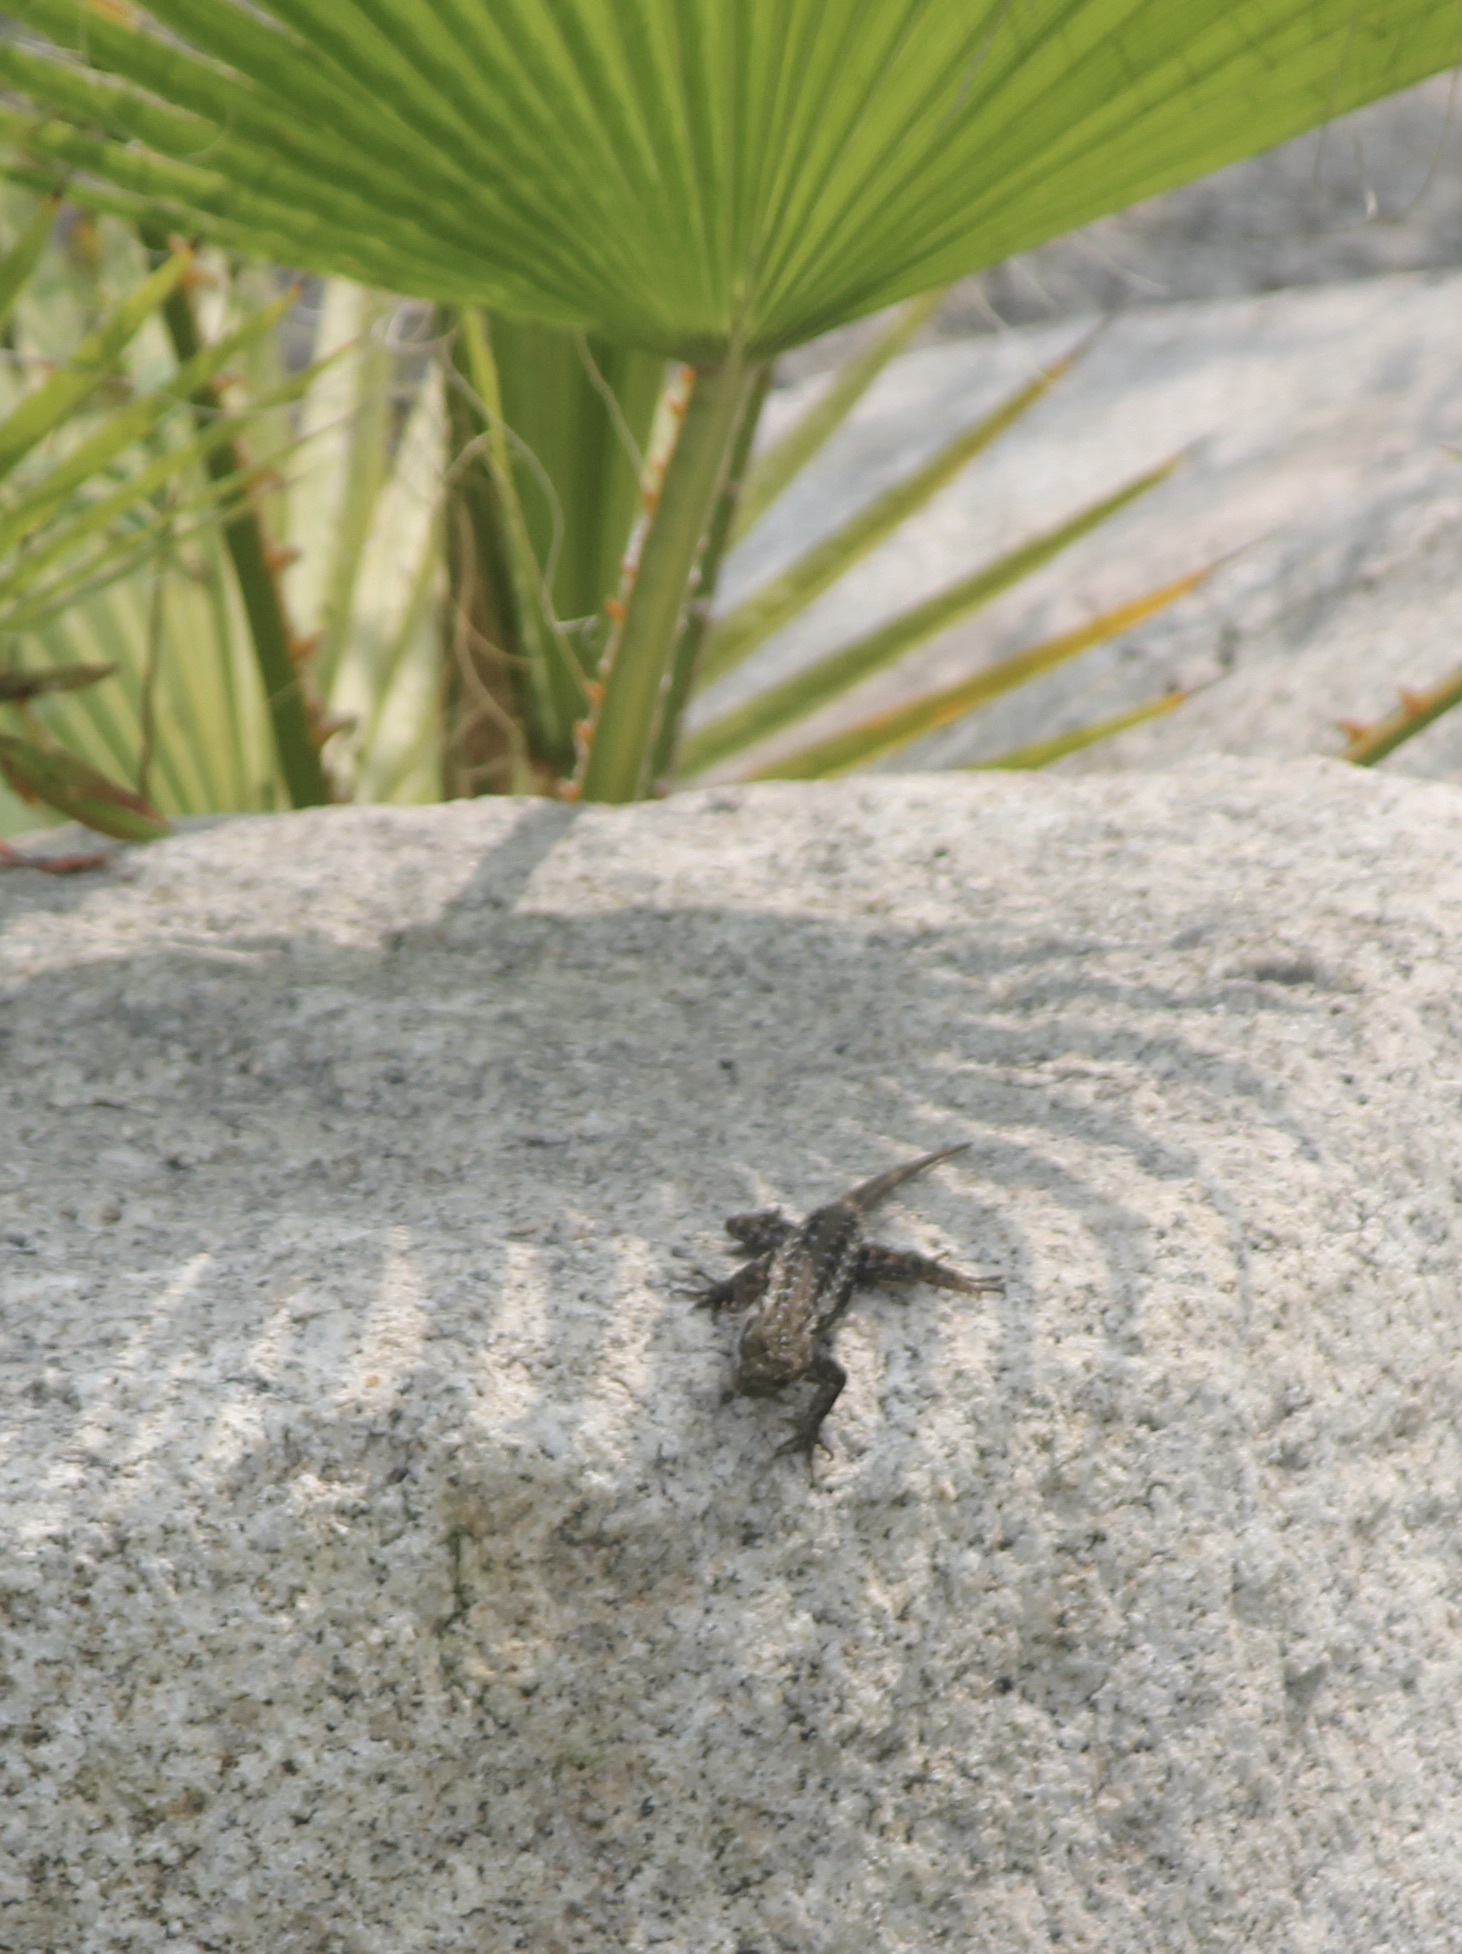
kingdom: Animalia
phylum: Chordata
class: Squamata
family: Phrynosomatidae
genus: Sceloporus
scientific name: Sceloporus occidentalis
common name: Western fence lizard
